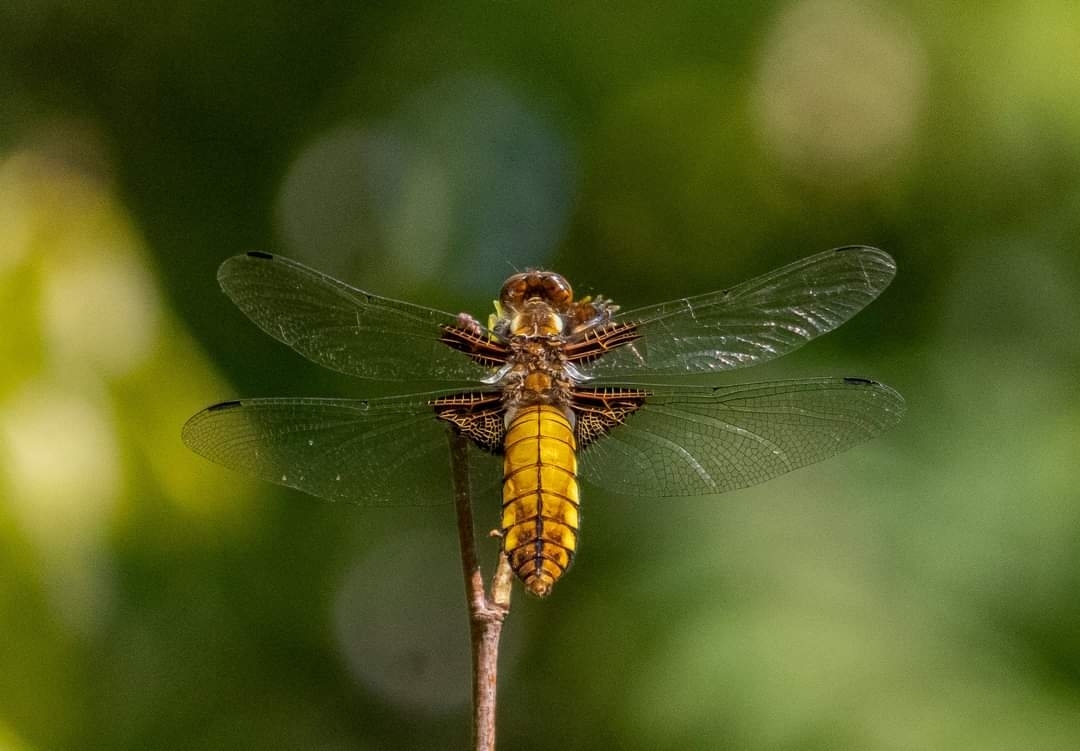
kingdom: Animalia
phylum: Arthropoda
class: Insecta
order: Odonata
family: Libellulidae
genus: Libellula
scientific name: Libellula depressa
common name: Broad-bodied chaser
